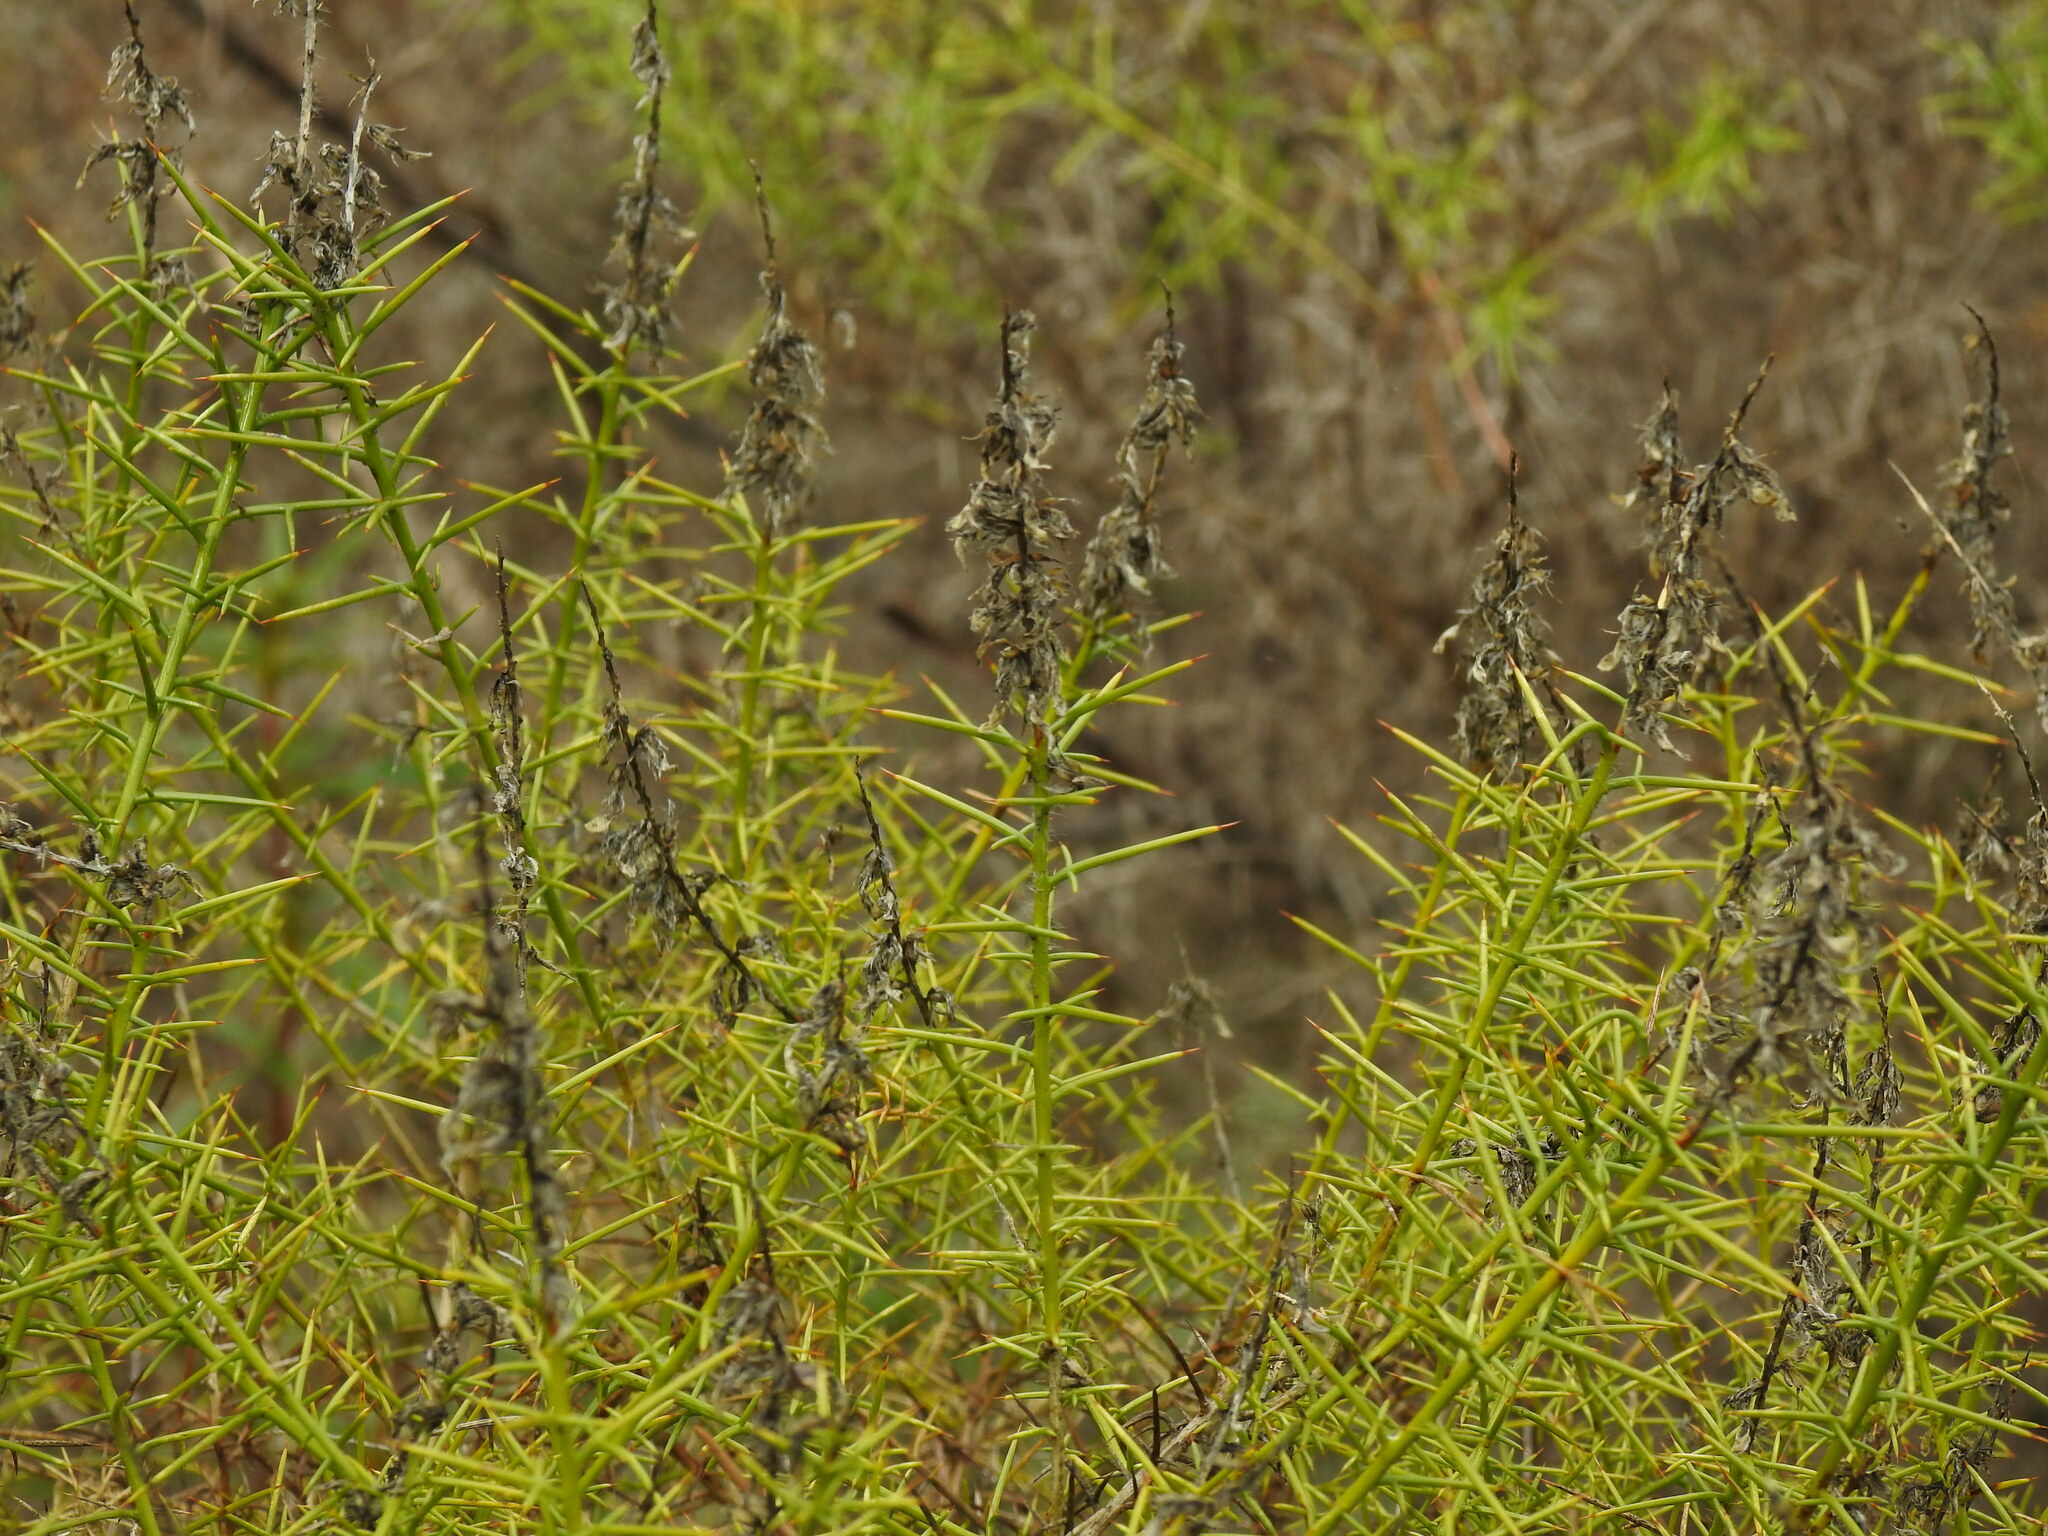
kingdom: Plantae
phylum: Tracheophyta
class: Magnoliopsida
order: Fabales
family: Fabaceae
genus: Genista
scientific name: Genista hirsuta
